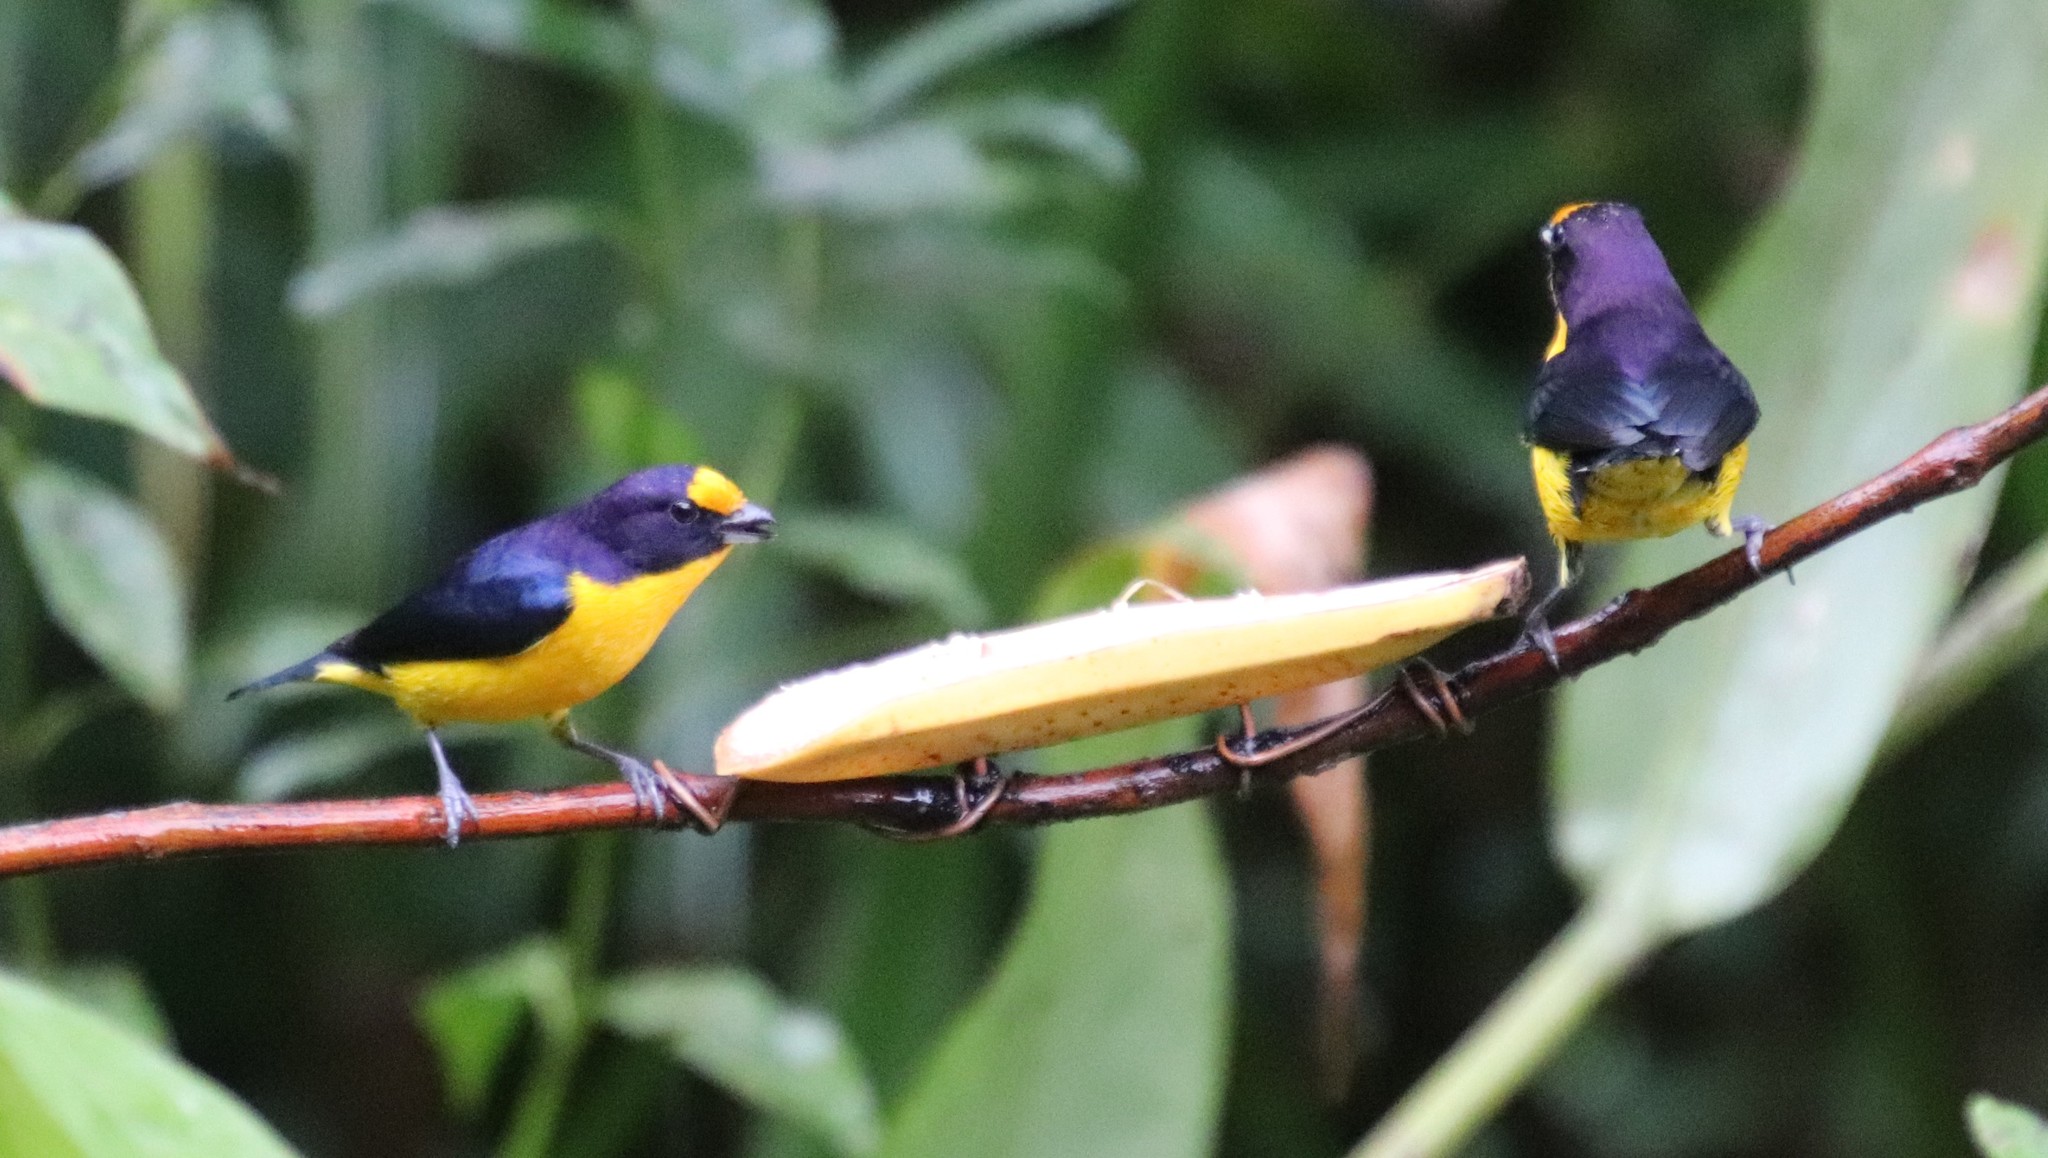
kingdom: Animalia
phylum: Chordata
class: Aves
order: Passeriformes
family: Fringillidae
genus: Euphonia
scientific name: Euphonia violacea
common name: Violaceous euphonia
